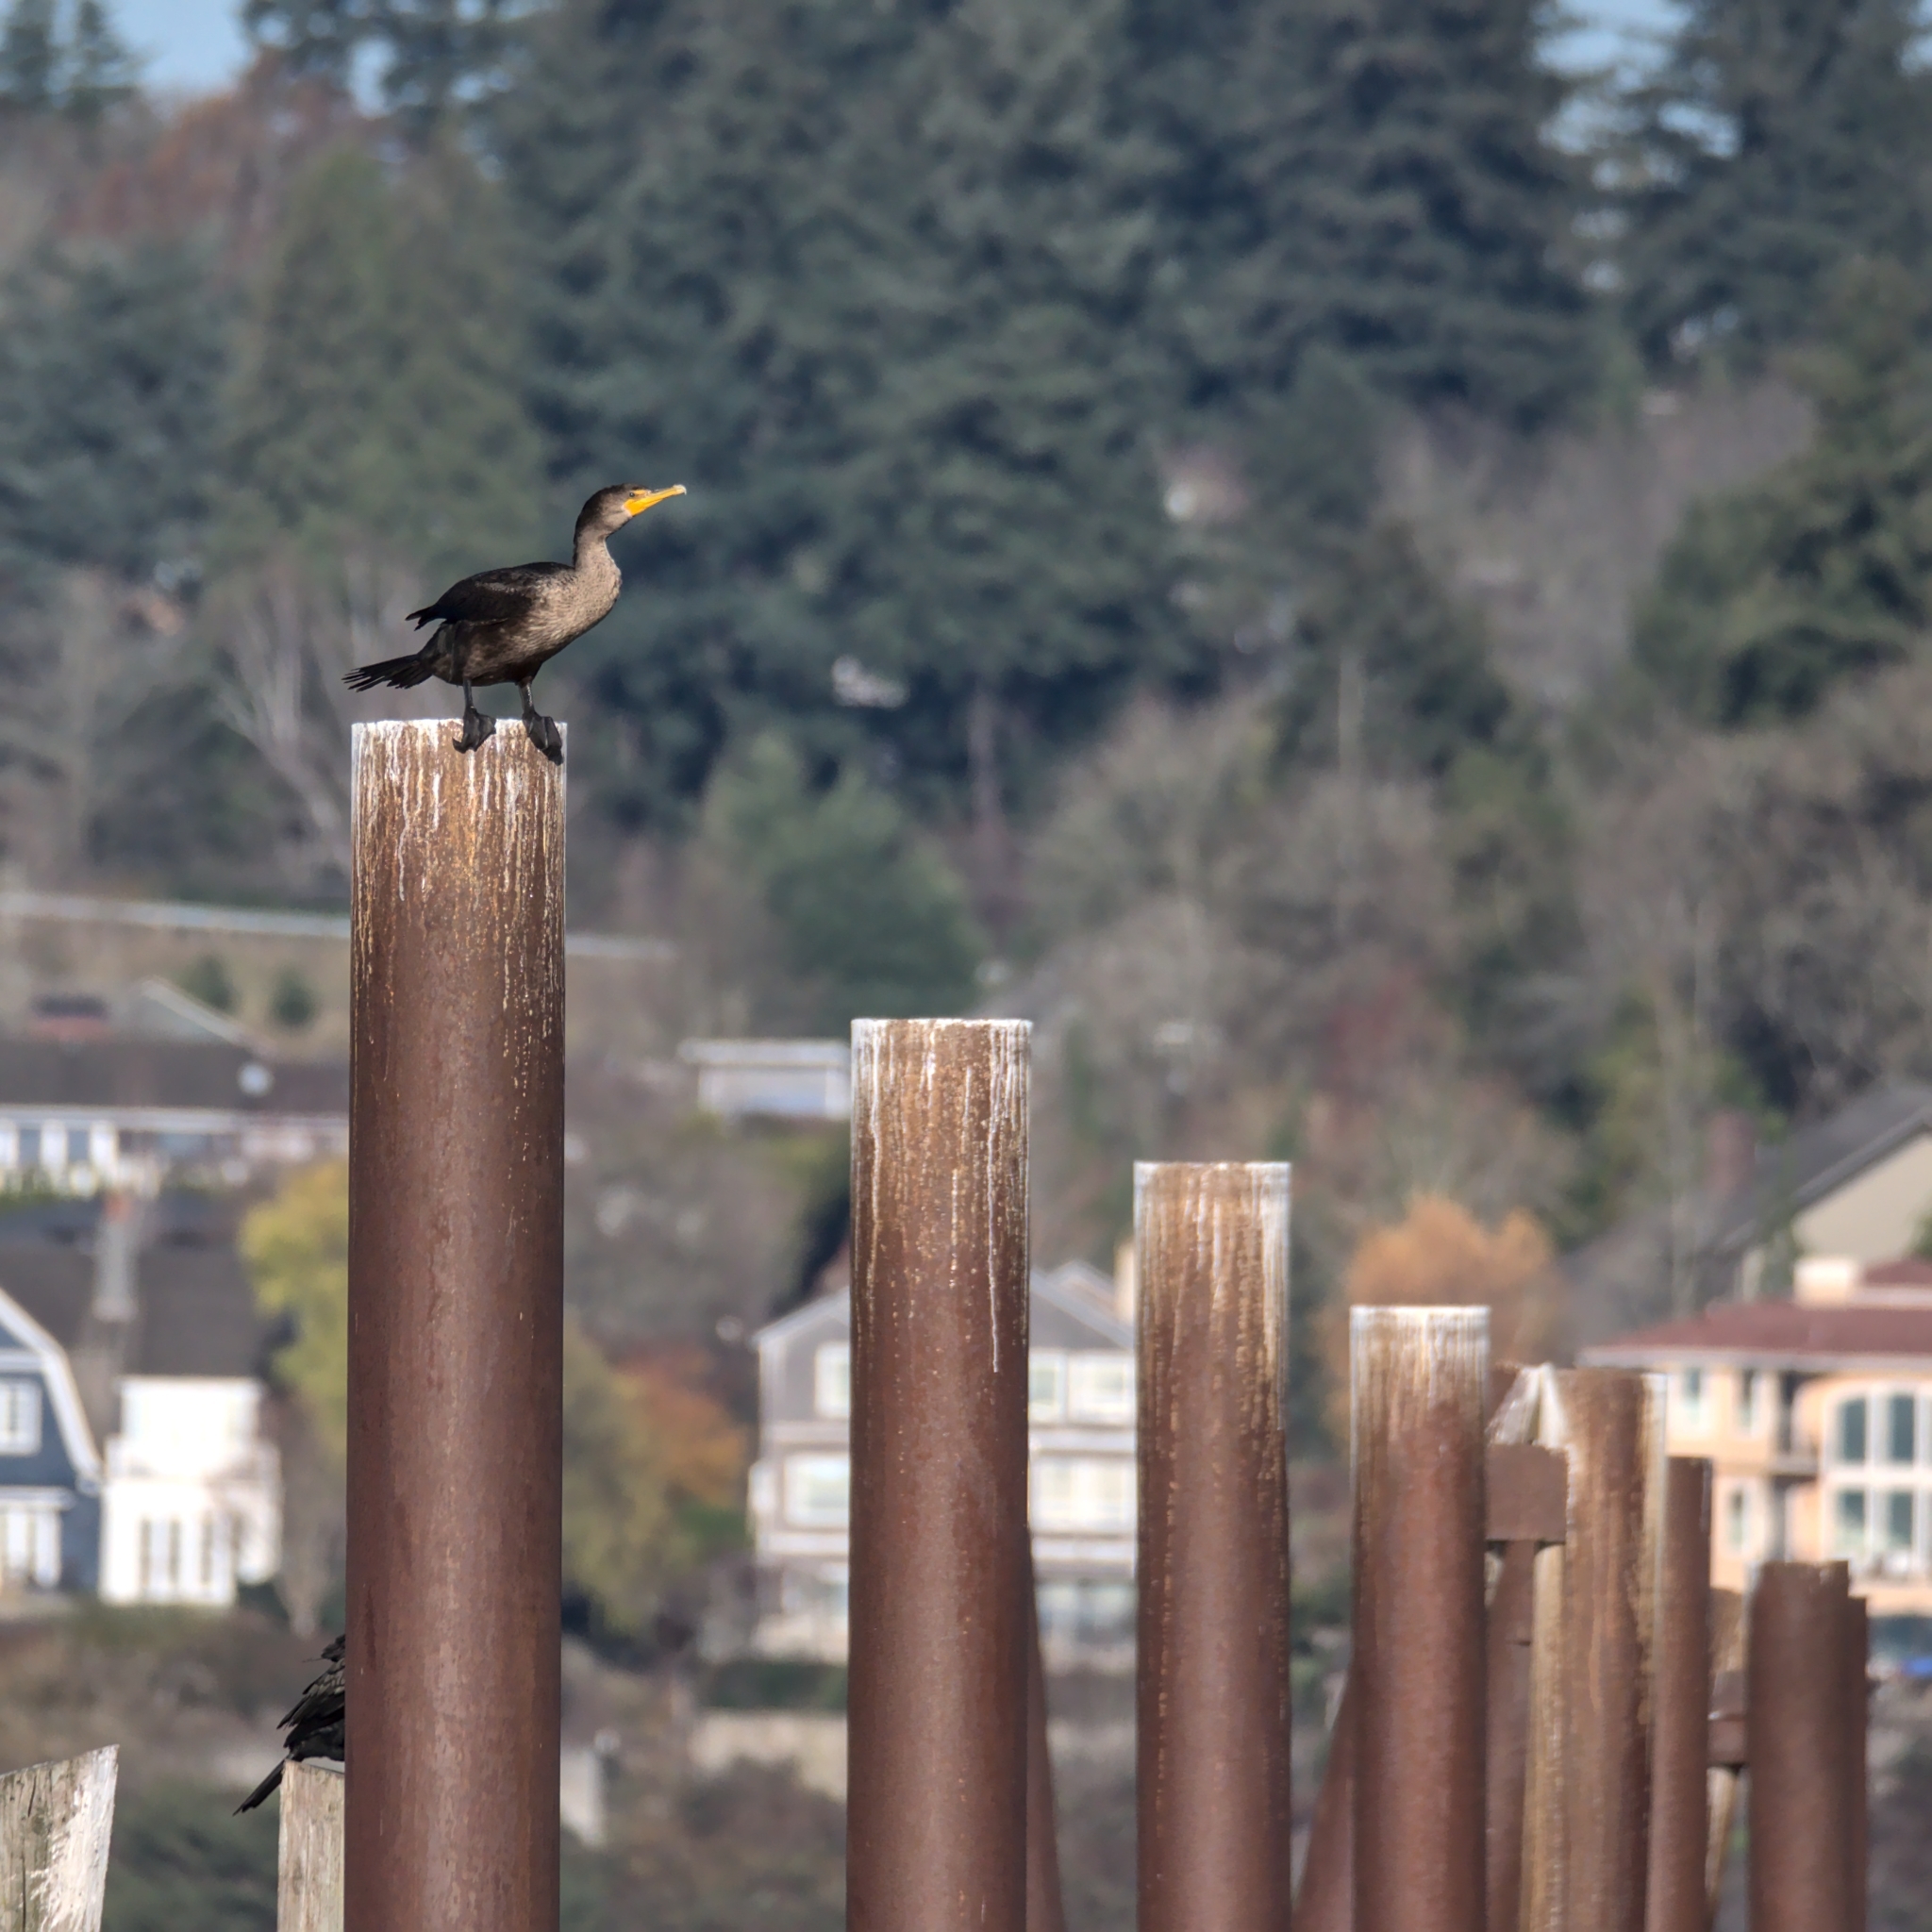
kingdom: Animalia
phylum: Chordata
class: Aves
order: Suliformes
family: Phalacrocoracidae
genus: Phalacrocorax
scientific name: Phalacrocorax auritus
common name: Double-crested cormorant
